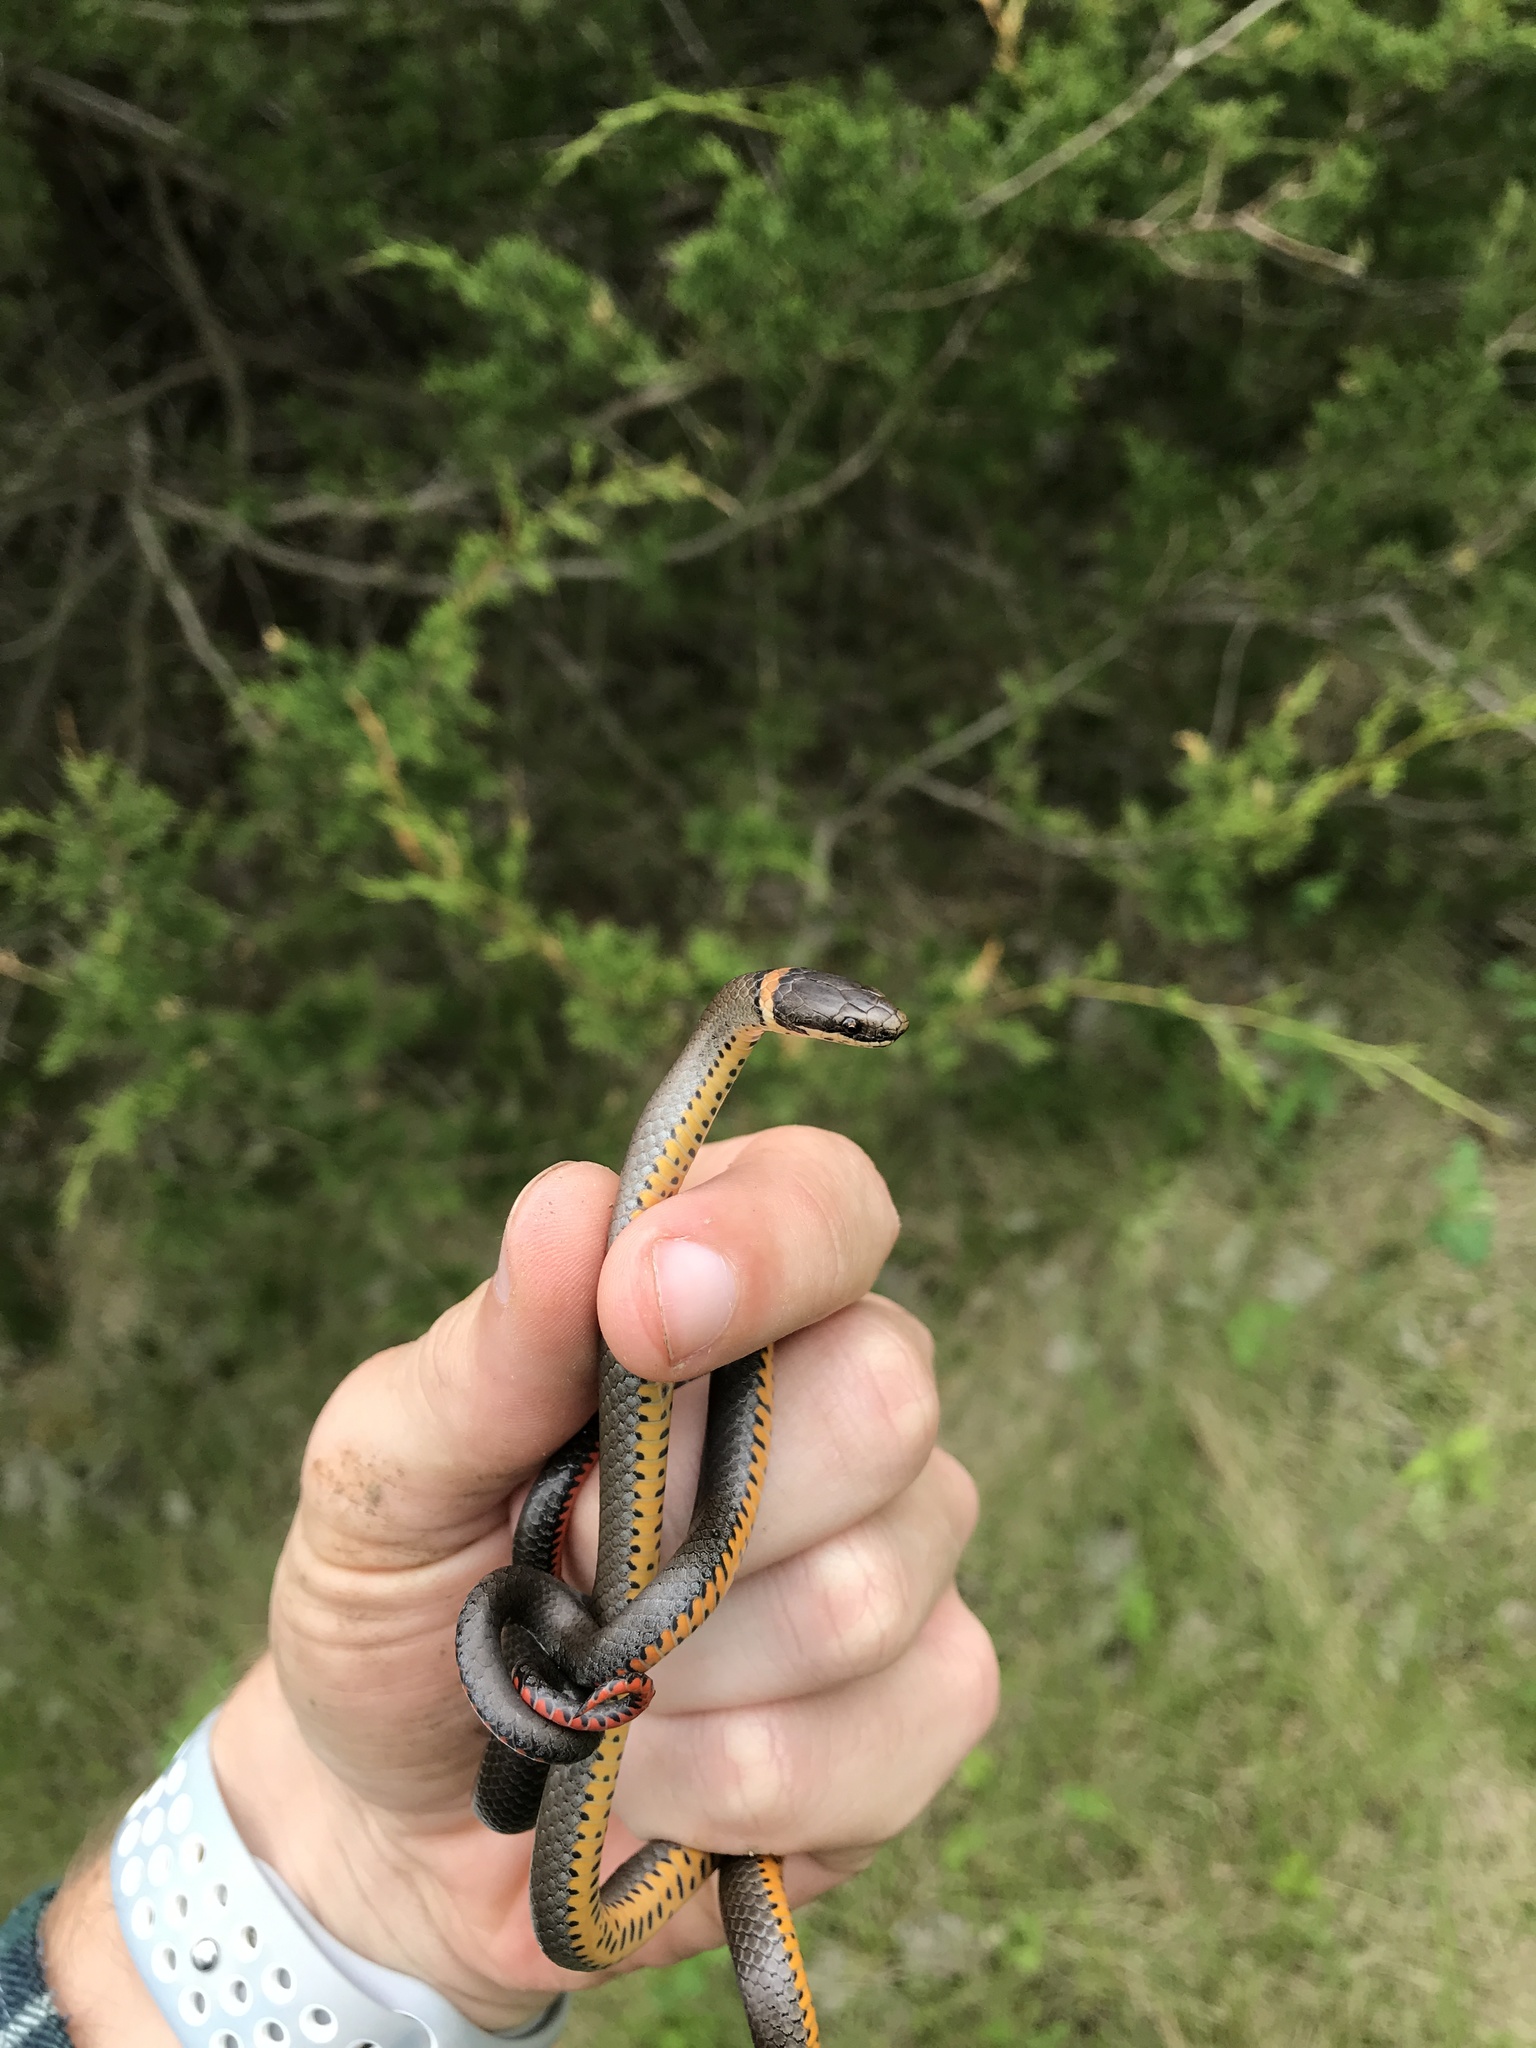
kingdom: Animalia
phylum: Chordata
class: Squamata
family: Colubridae
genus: Diadophis
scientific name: Diadophis punctatus
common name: Ringneck snake
